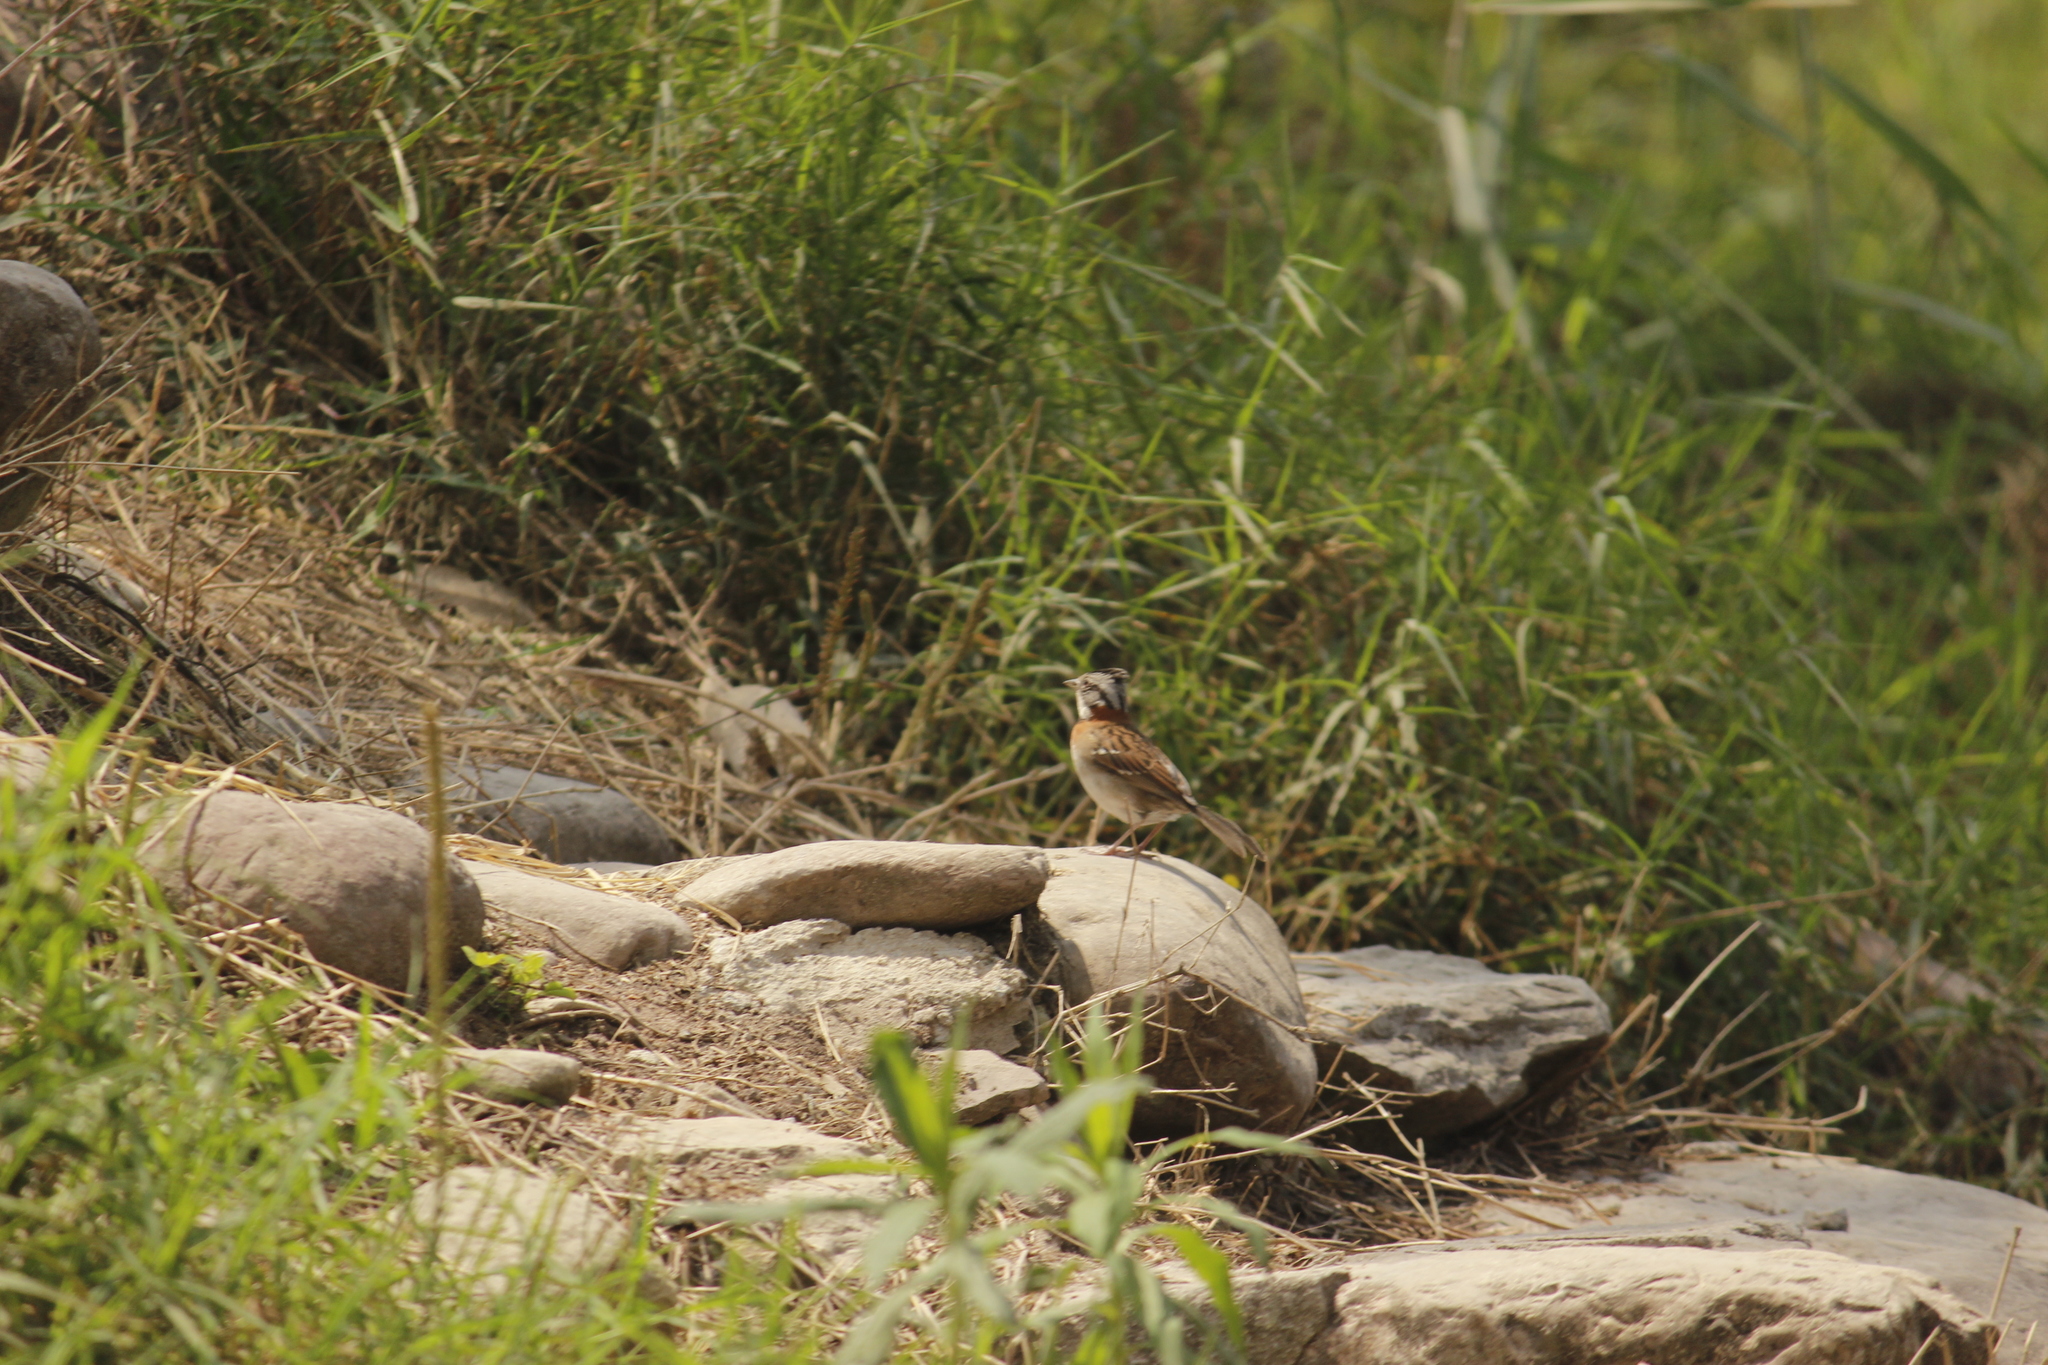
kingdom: Animalia
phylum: Chordata
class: Aves
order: Passeriformes
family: Passerellidae
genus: Zonotrichia
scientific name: Zonotrichia capensis
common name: Rufous-collared sparrow
